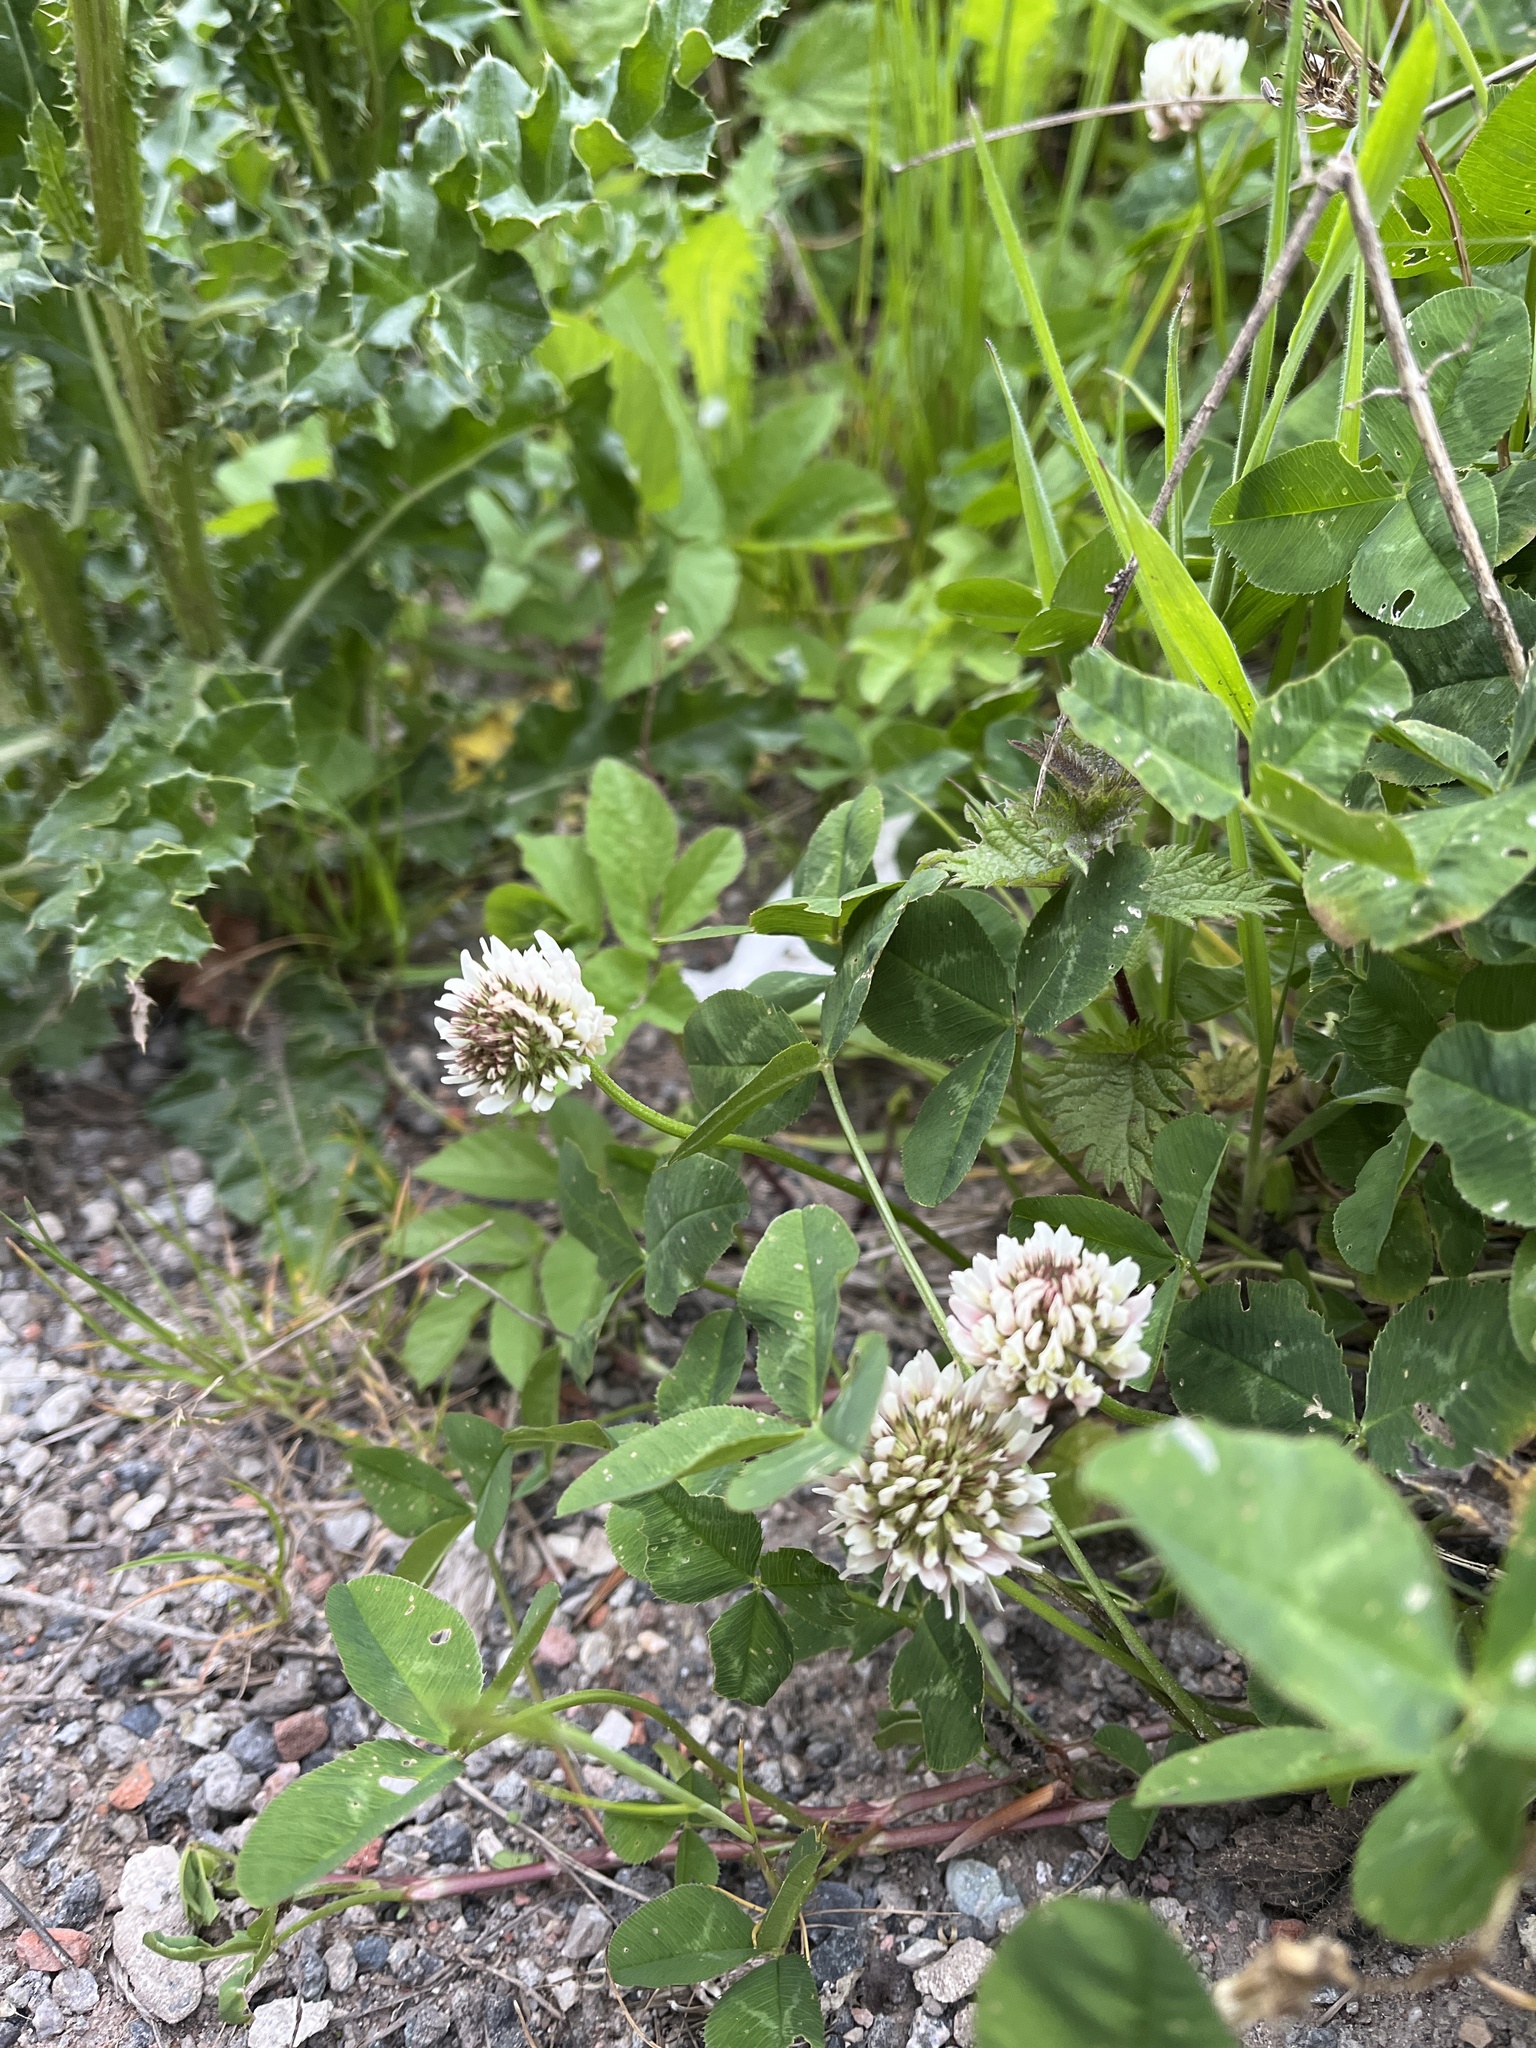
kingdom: Plantae
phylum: Tracheophyta
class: Magnoliopsida
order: Fabales
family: Fabaceae
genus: Trifolium
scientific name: Trifolium repens
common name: White clover
